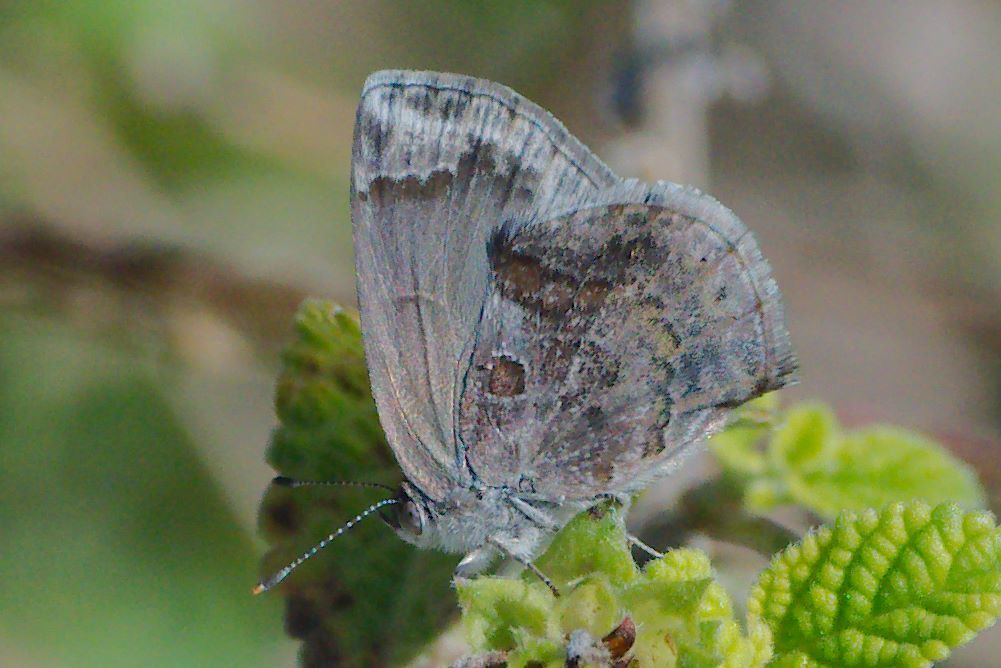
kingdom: Animalia
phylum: Arthropoda
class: Insecta
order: Lepidoptera
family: Lycaenidae
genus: Strymon
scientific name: Strymon bazochii
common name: Lantana scrub-hairstreak
